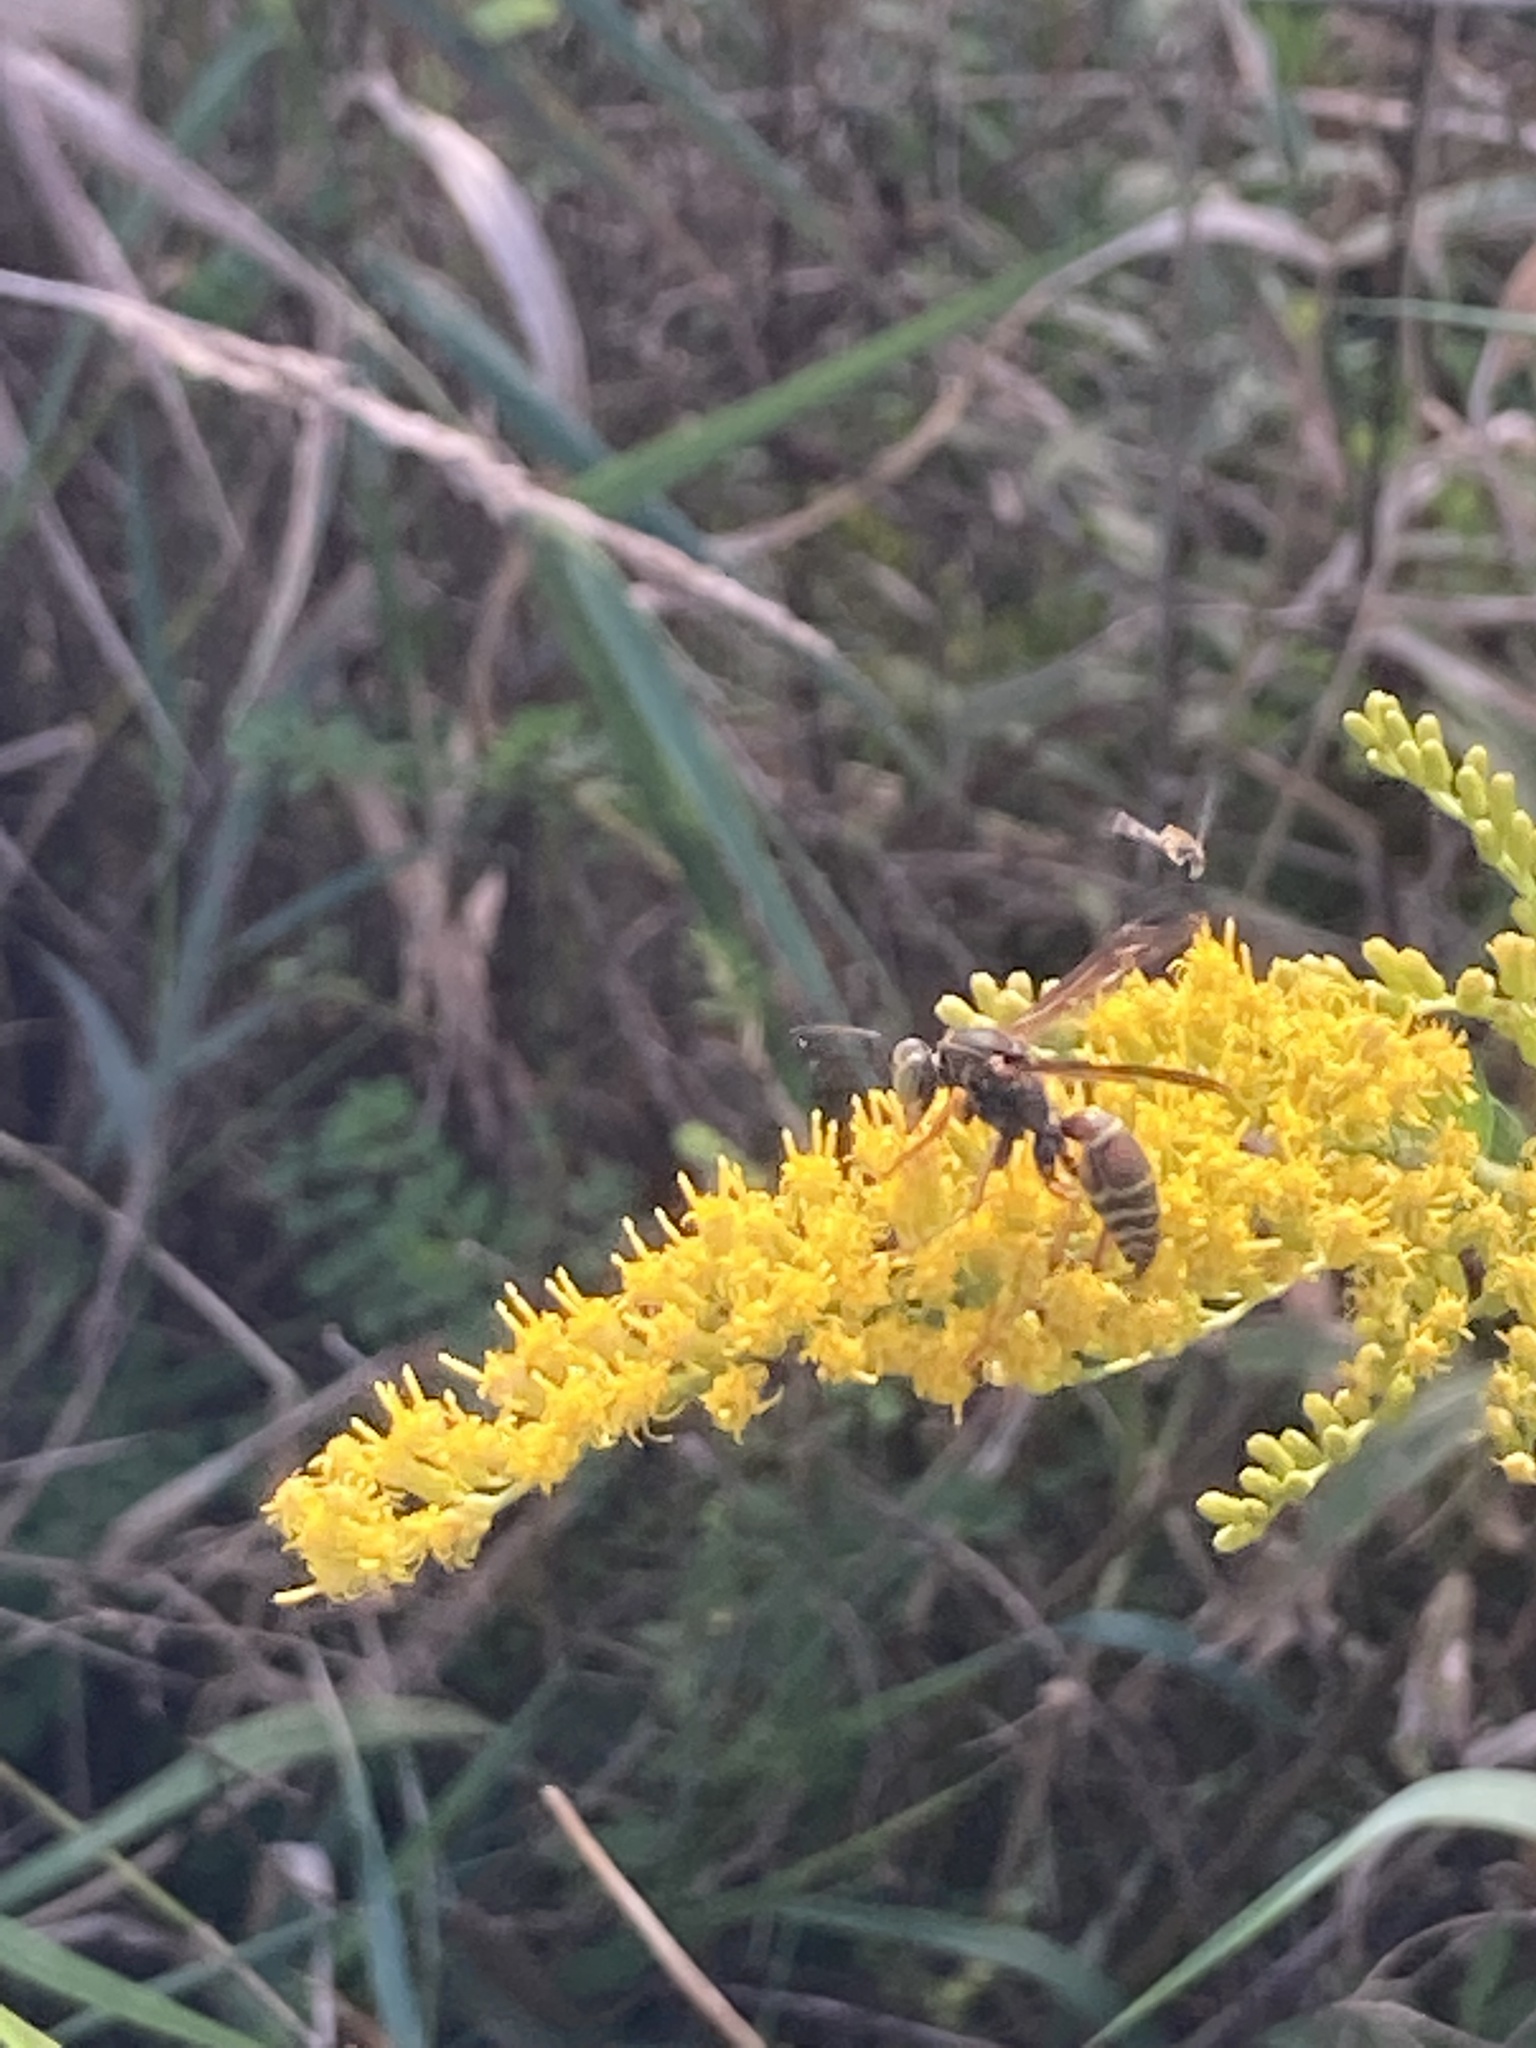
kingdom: Animalia
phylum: Arthropoda
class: Insecta
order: Hymenoptera
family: Eumenidae
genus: Polistes
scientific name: Polistes fuscatus
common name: Dark paper wasp
